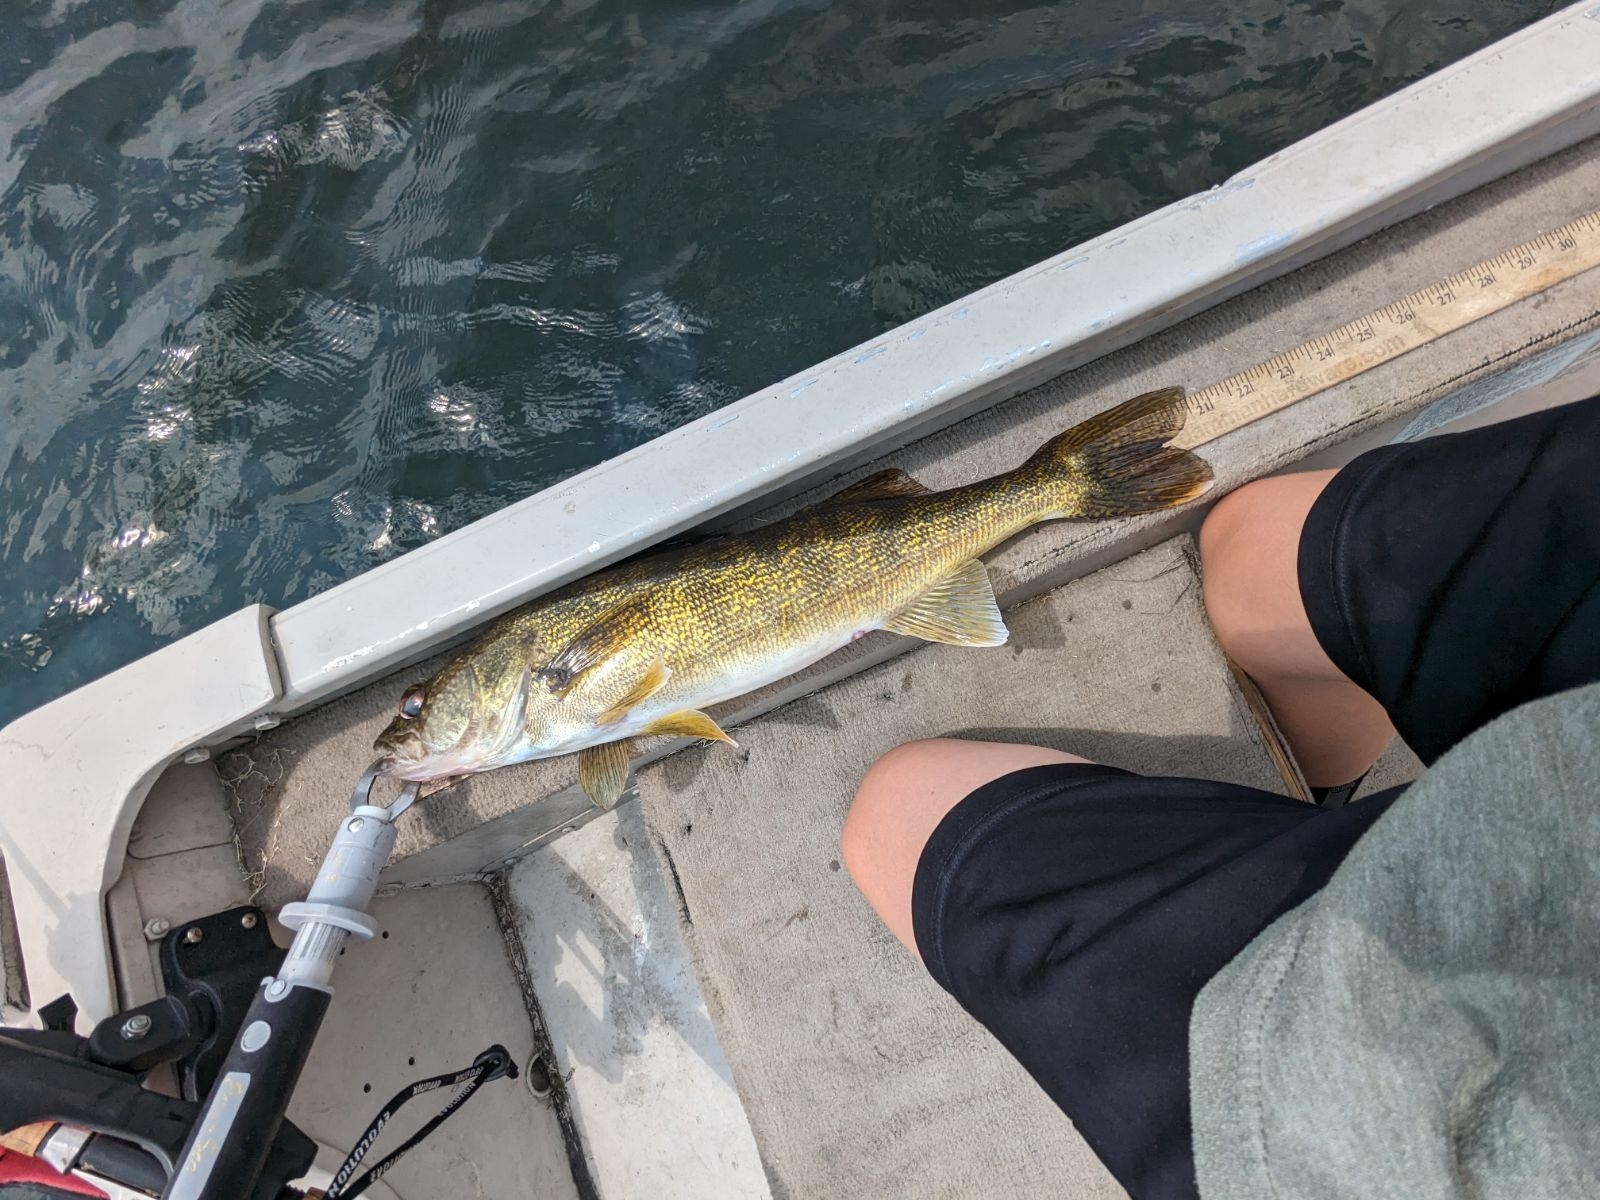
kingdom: Animalia
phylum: Chordata
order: Perciformes
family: Percidae
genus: Sander
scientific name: Sander vitreus
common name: Walleye
